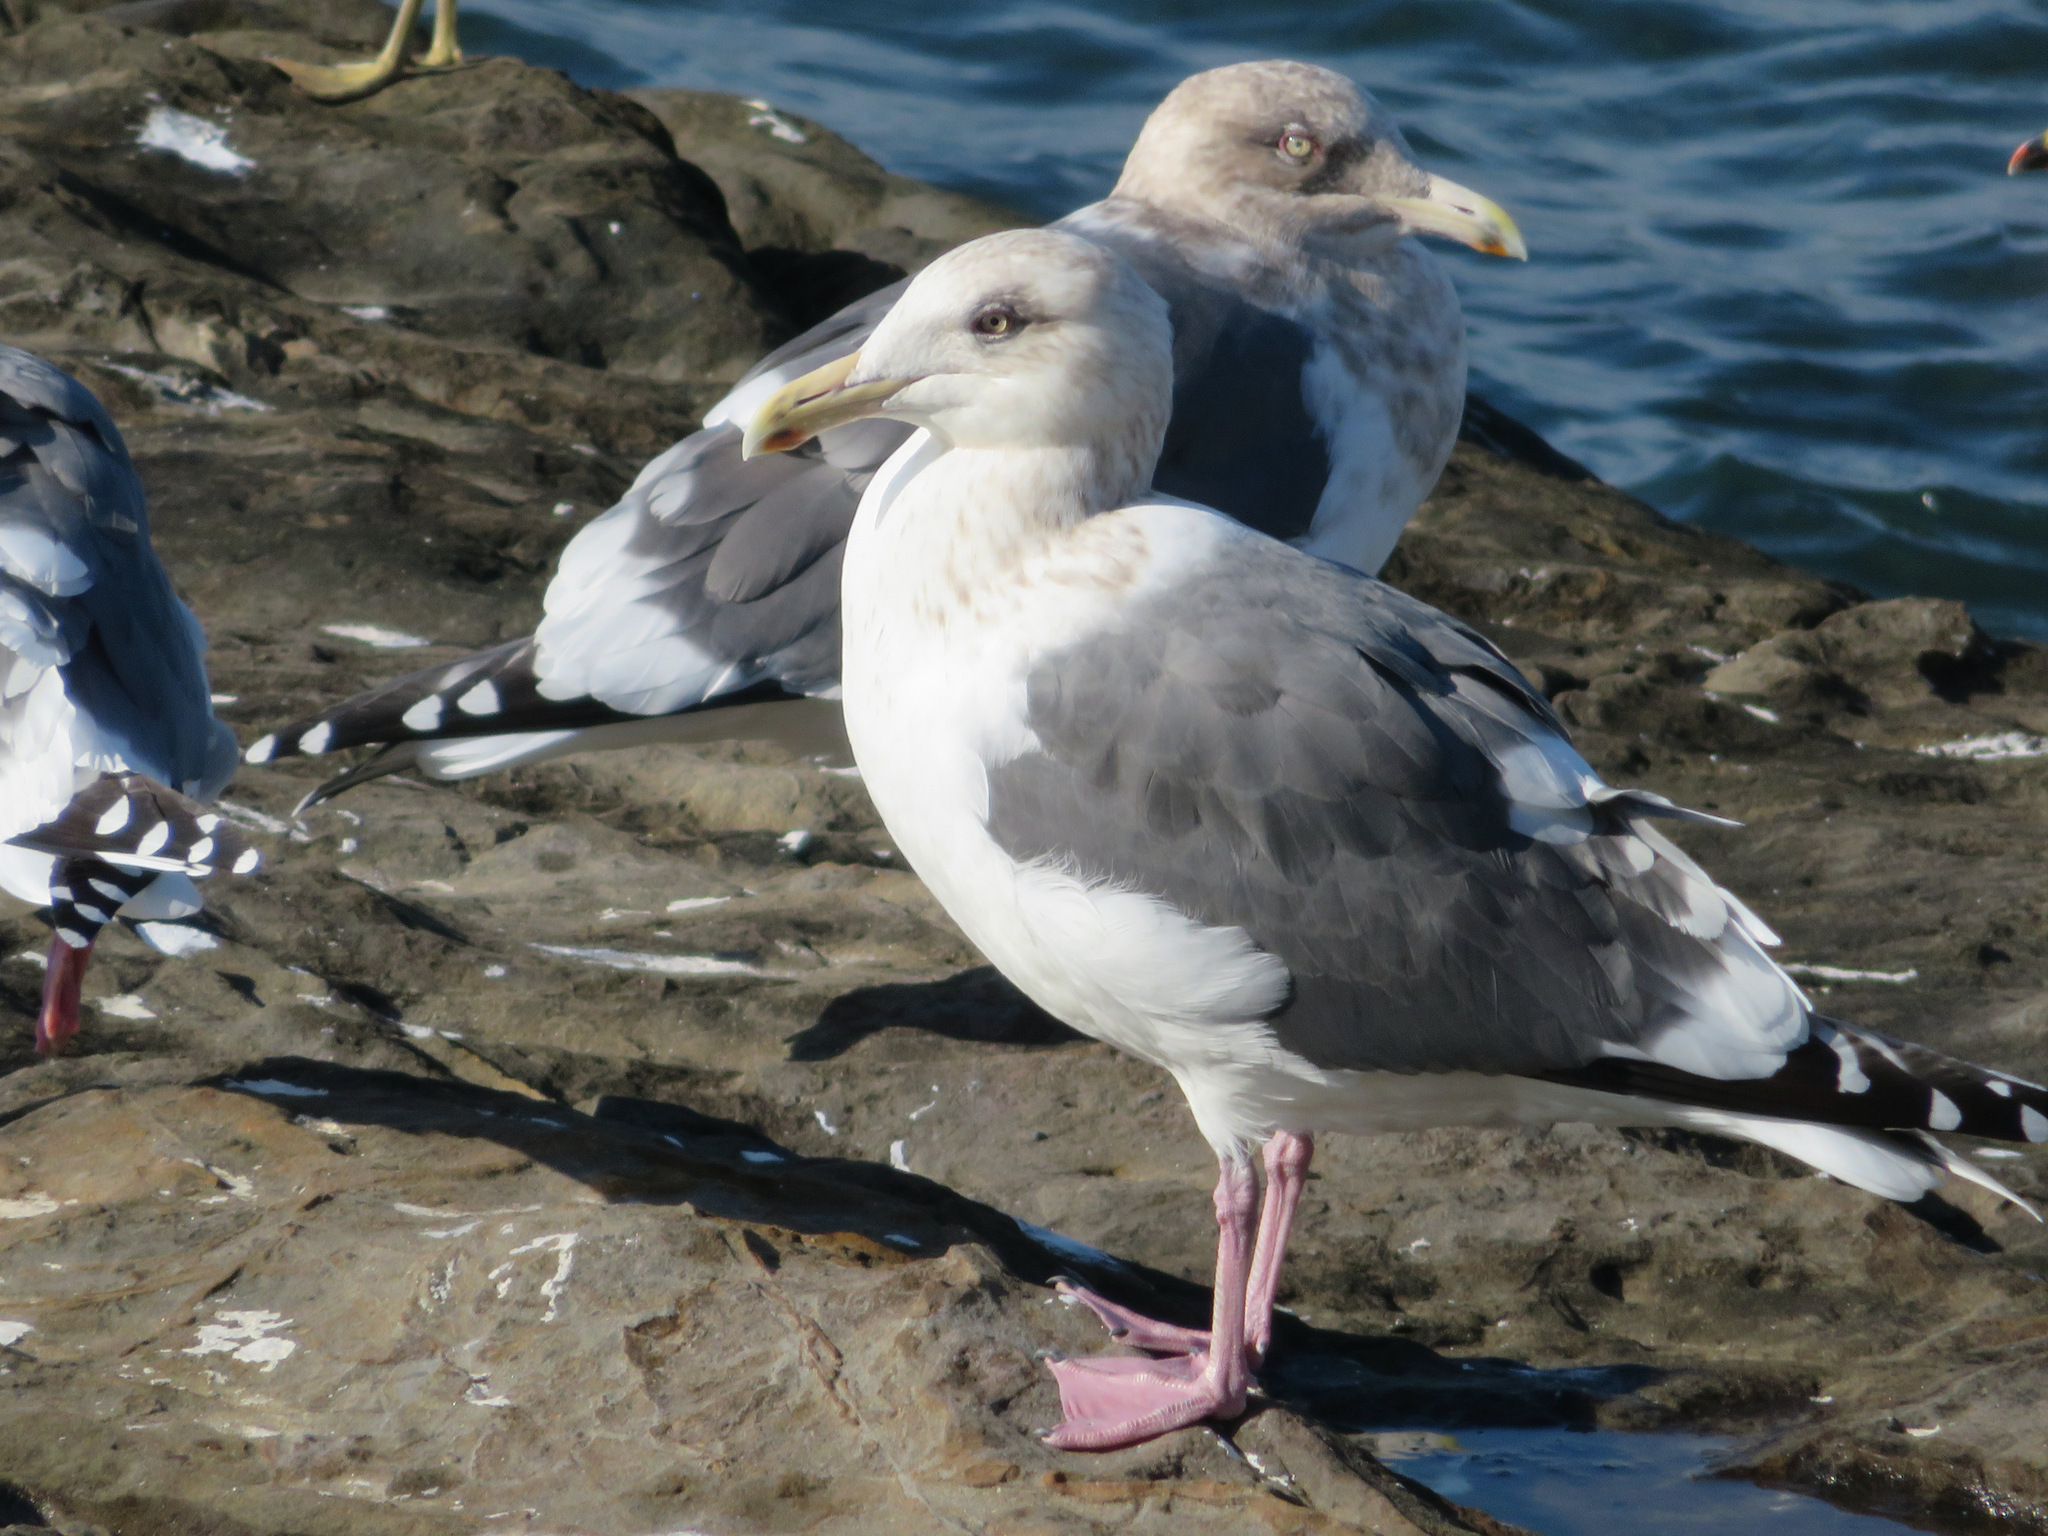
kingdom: Animalia
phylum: Chordata
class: Aves
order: Charadriiformes
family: Laridae
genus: Larus
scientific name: Larus schistisagus
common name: Slaty-backed gull
